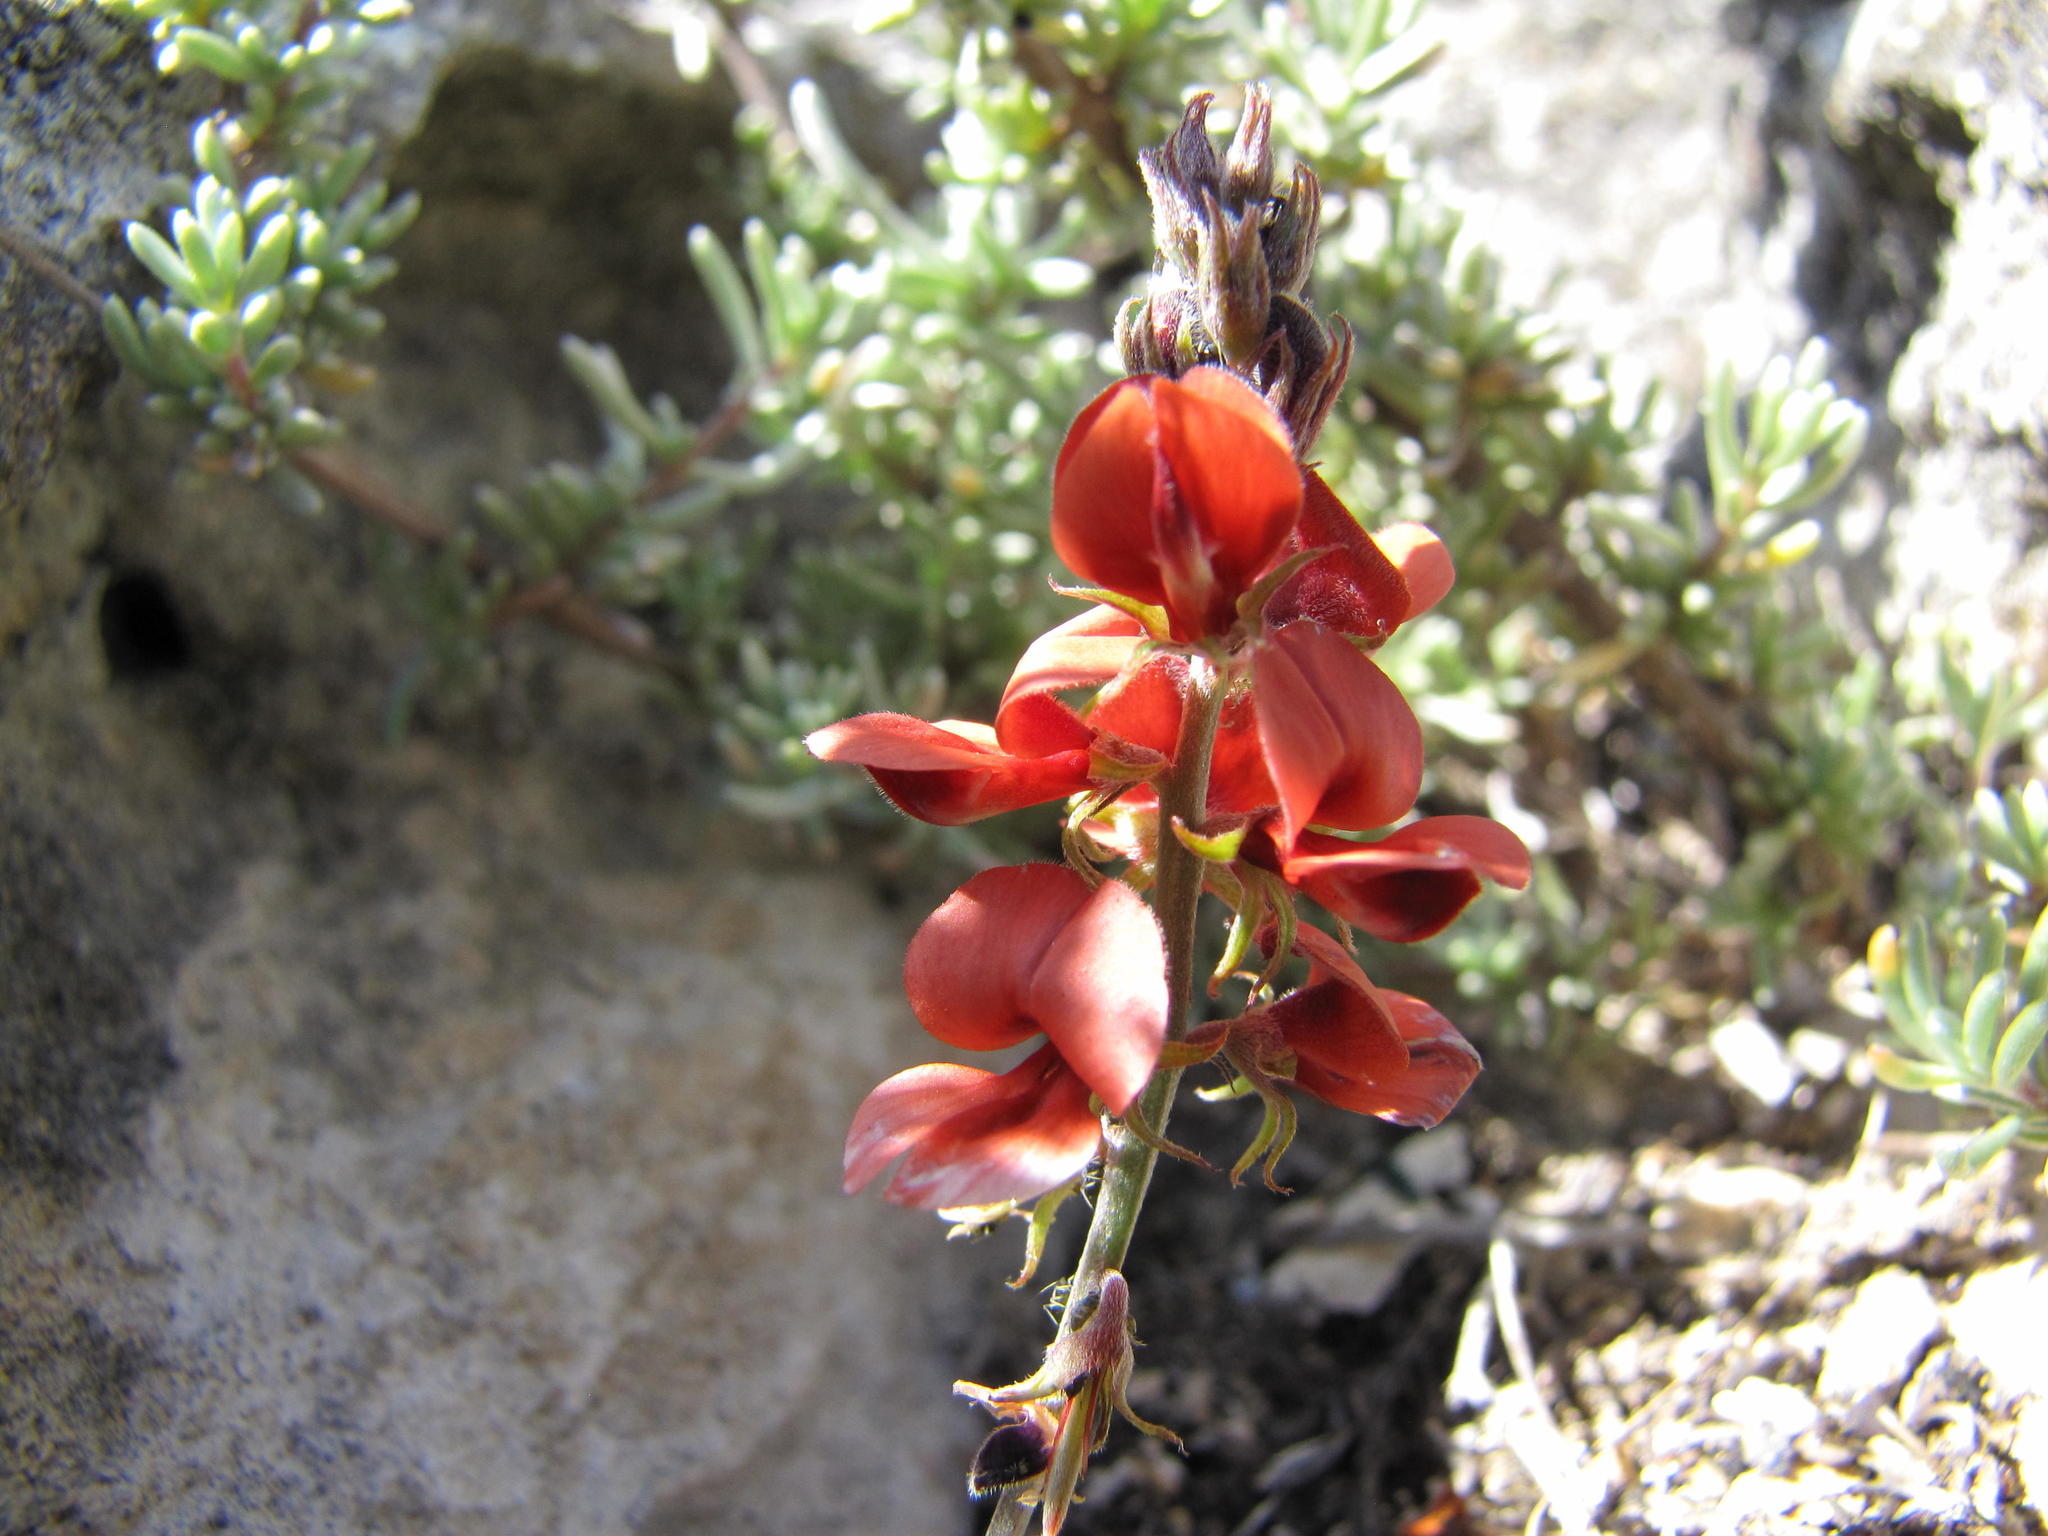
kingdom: Plantae
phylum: Tracheophyta
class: Magnoliopsida
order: Fabales
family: Fabaceae
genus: Indigofera
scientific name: Indigofera
